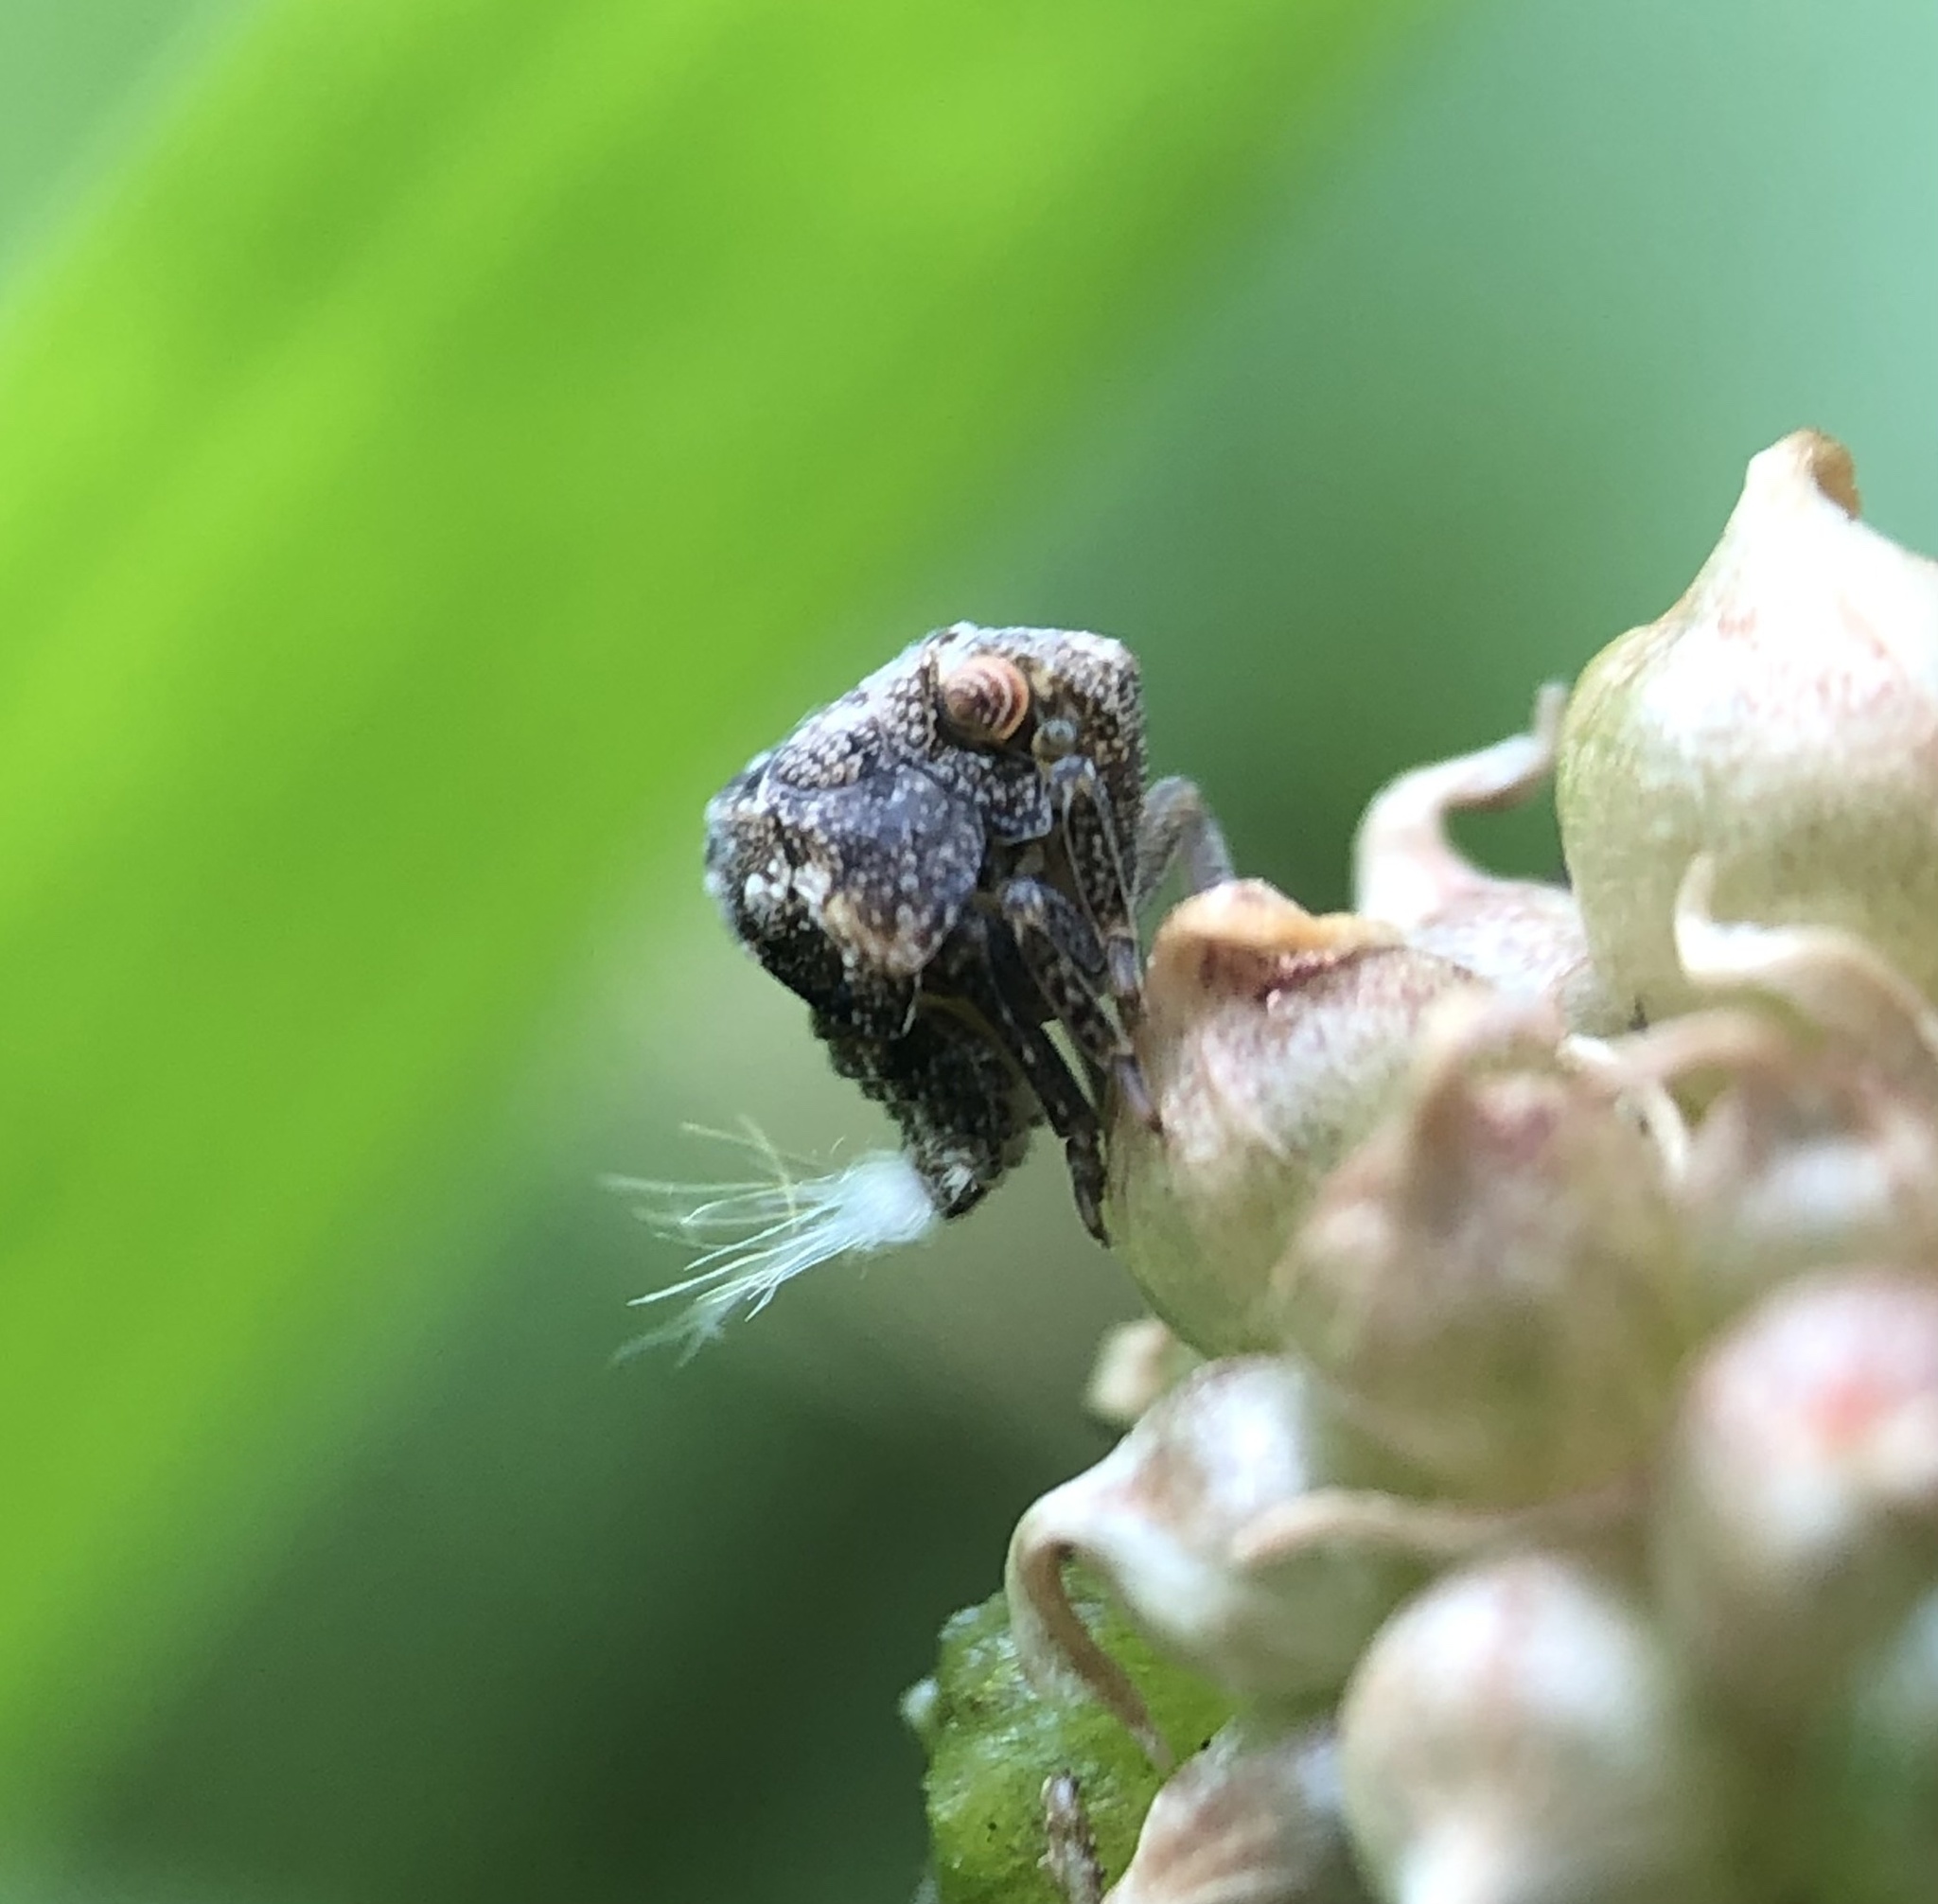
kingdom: Animalia
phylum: Arthropoda
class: Insecta
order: Hemiptera
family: Acanaloniidae
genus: Acanalonia
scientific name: Acanalonia bivittata
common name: Two-striped planthopper
